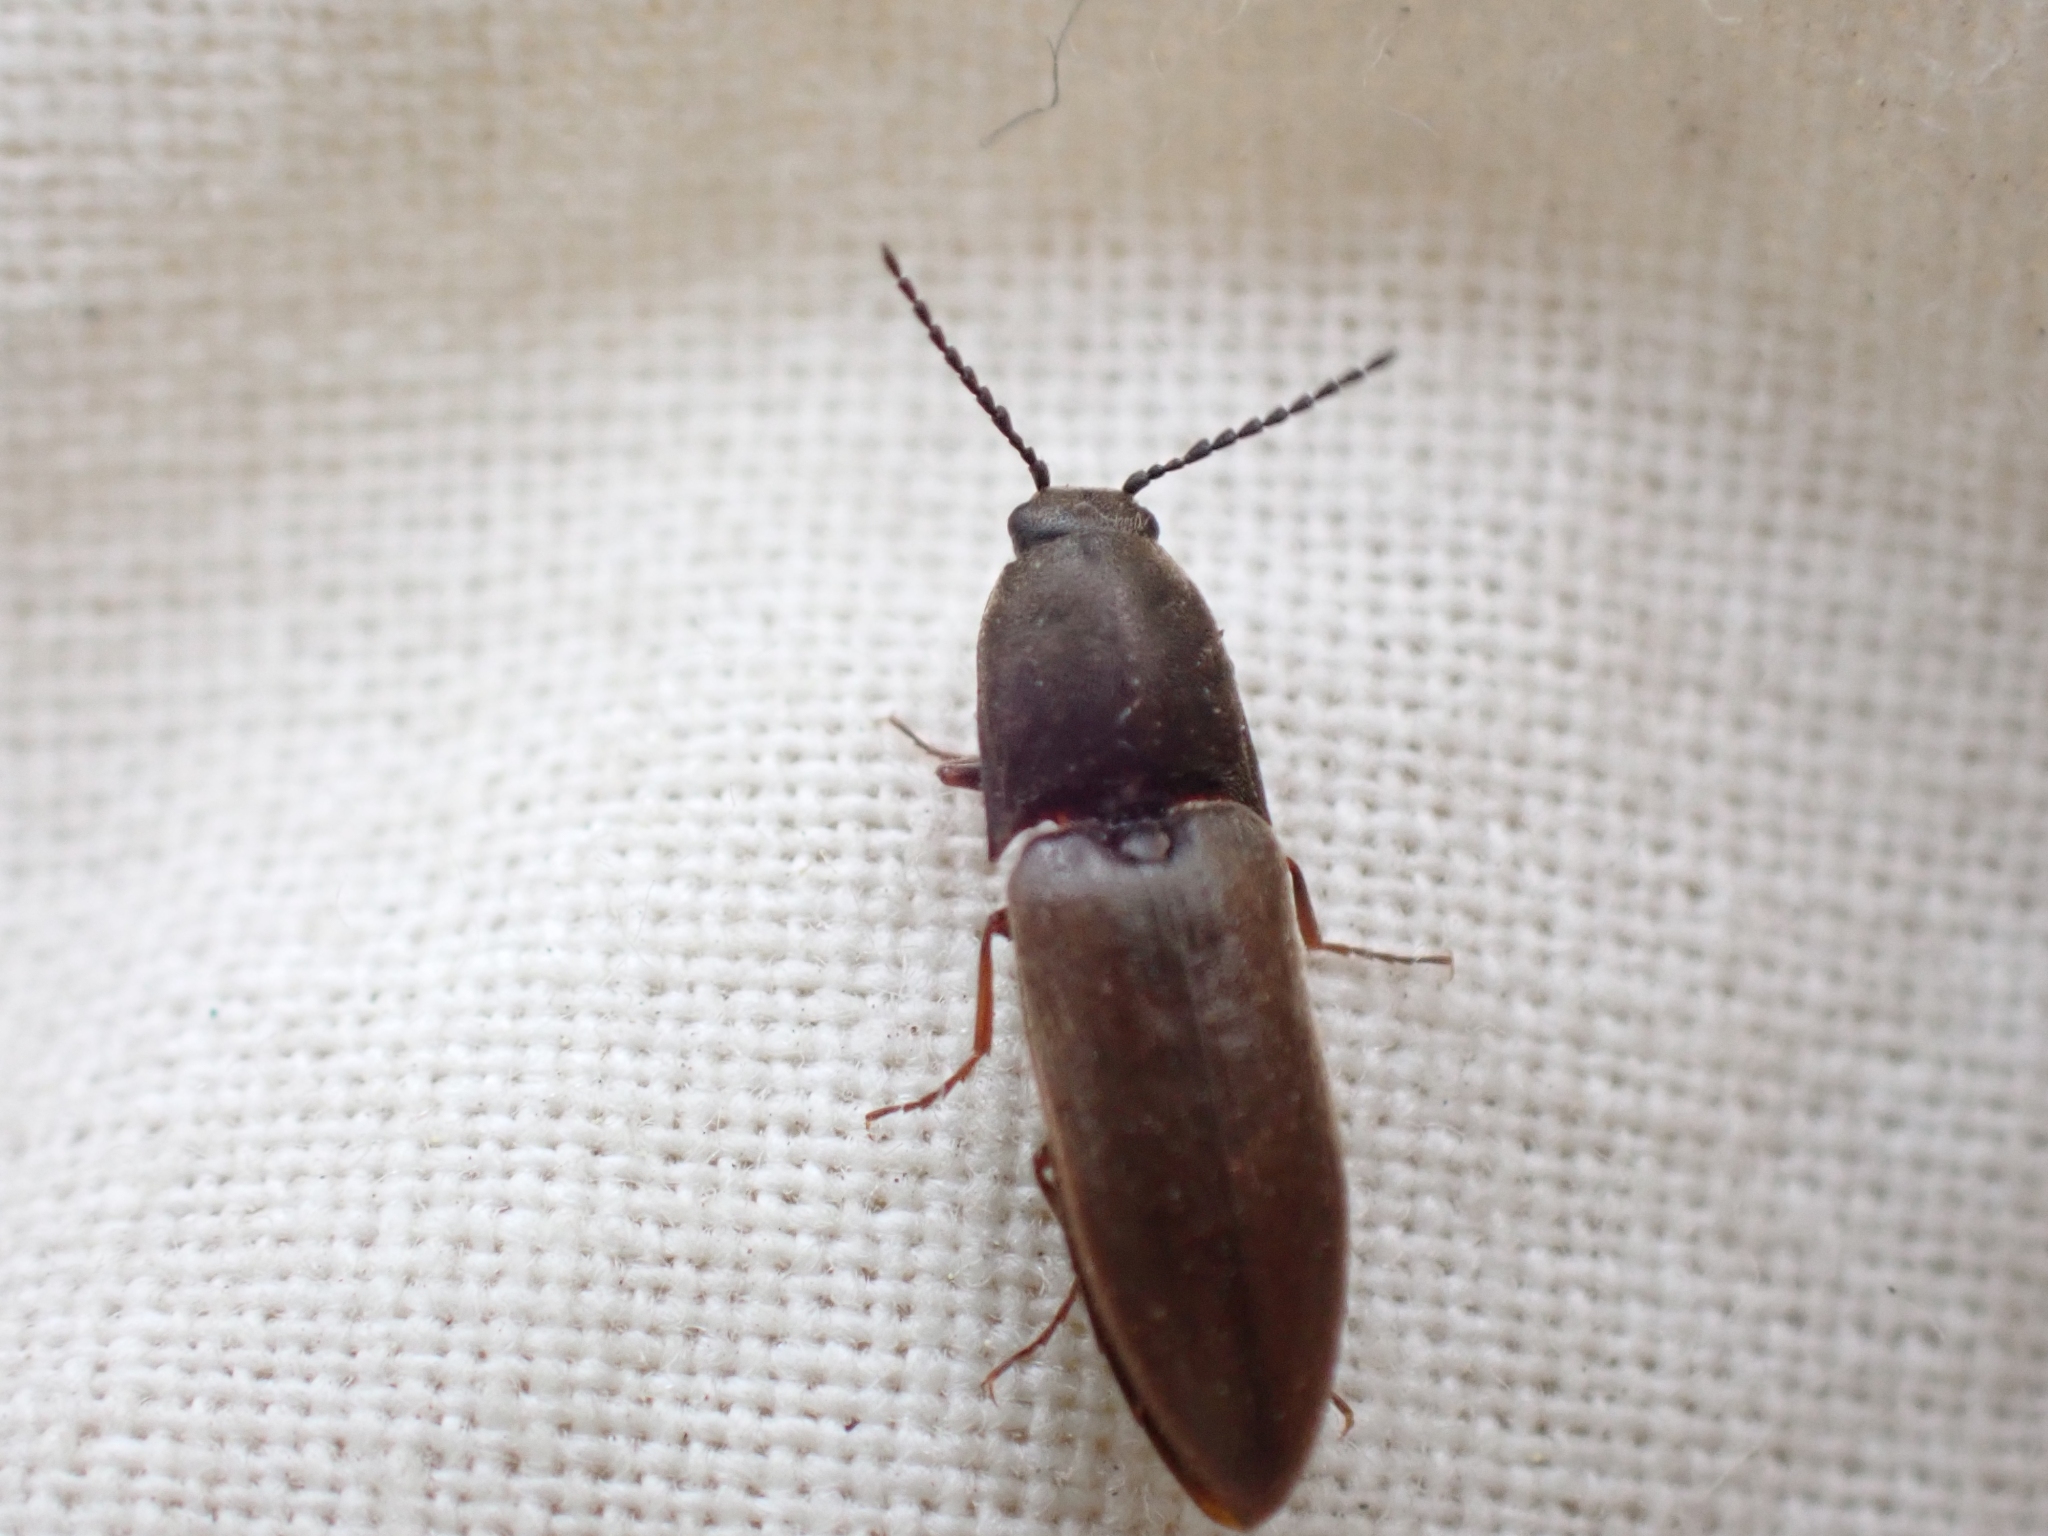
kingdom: Animalia
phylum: Arthropoda
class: Insecta
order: Coleoptera
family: Elateridae
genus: Sericus
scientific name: Sericus incongruus
